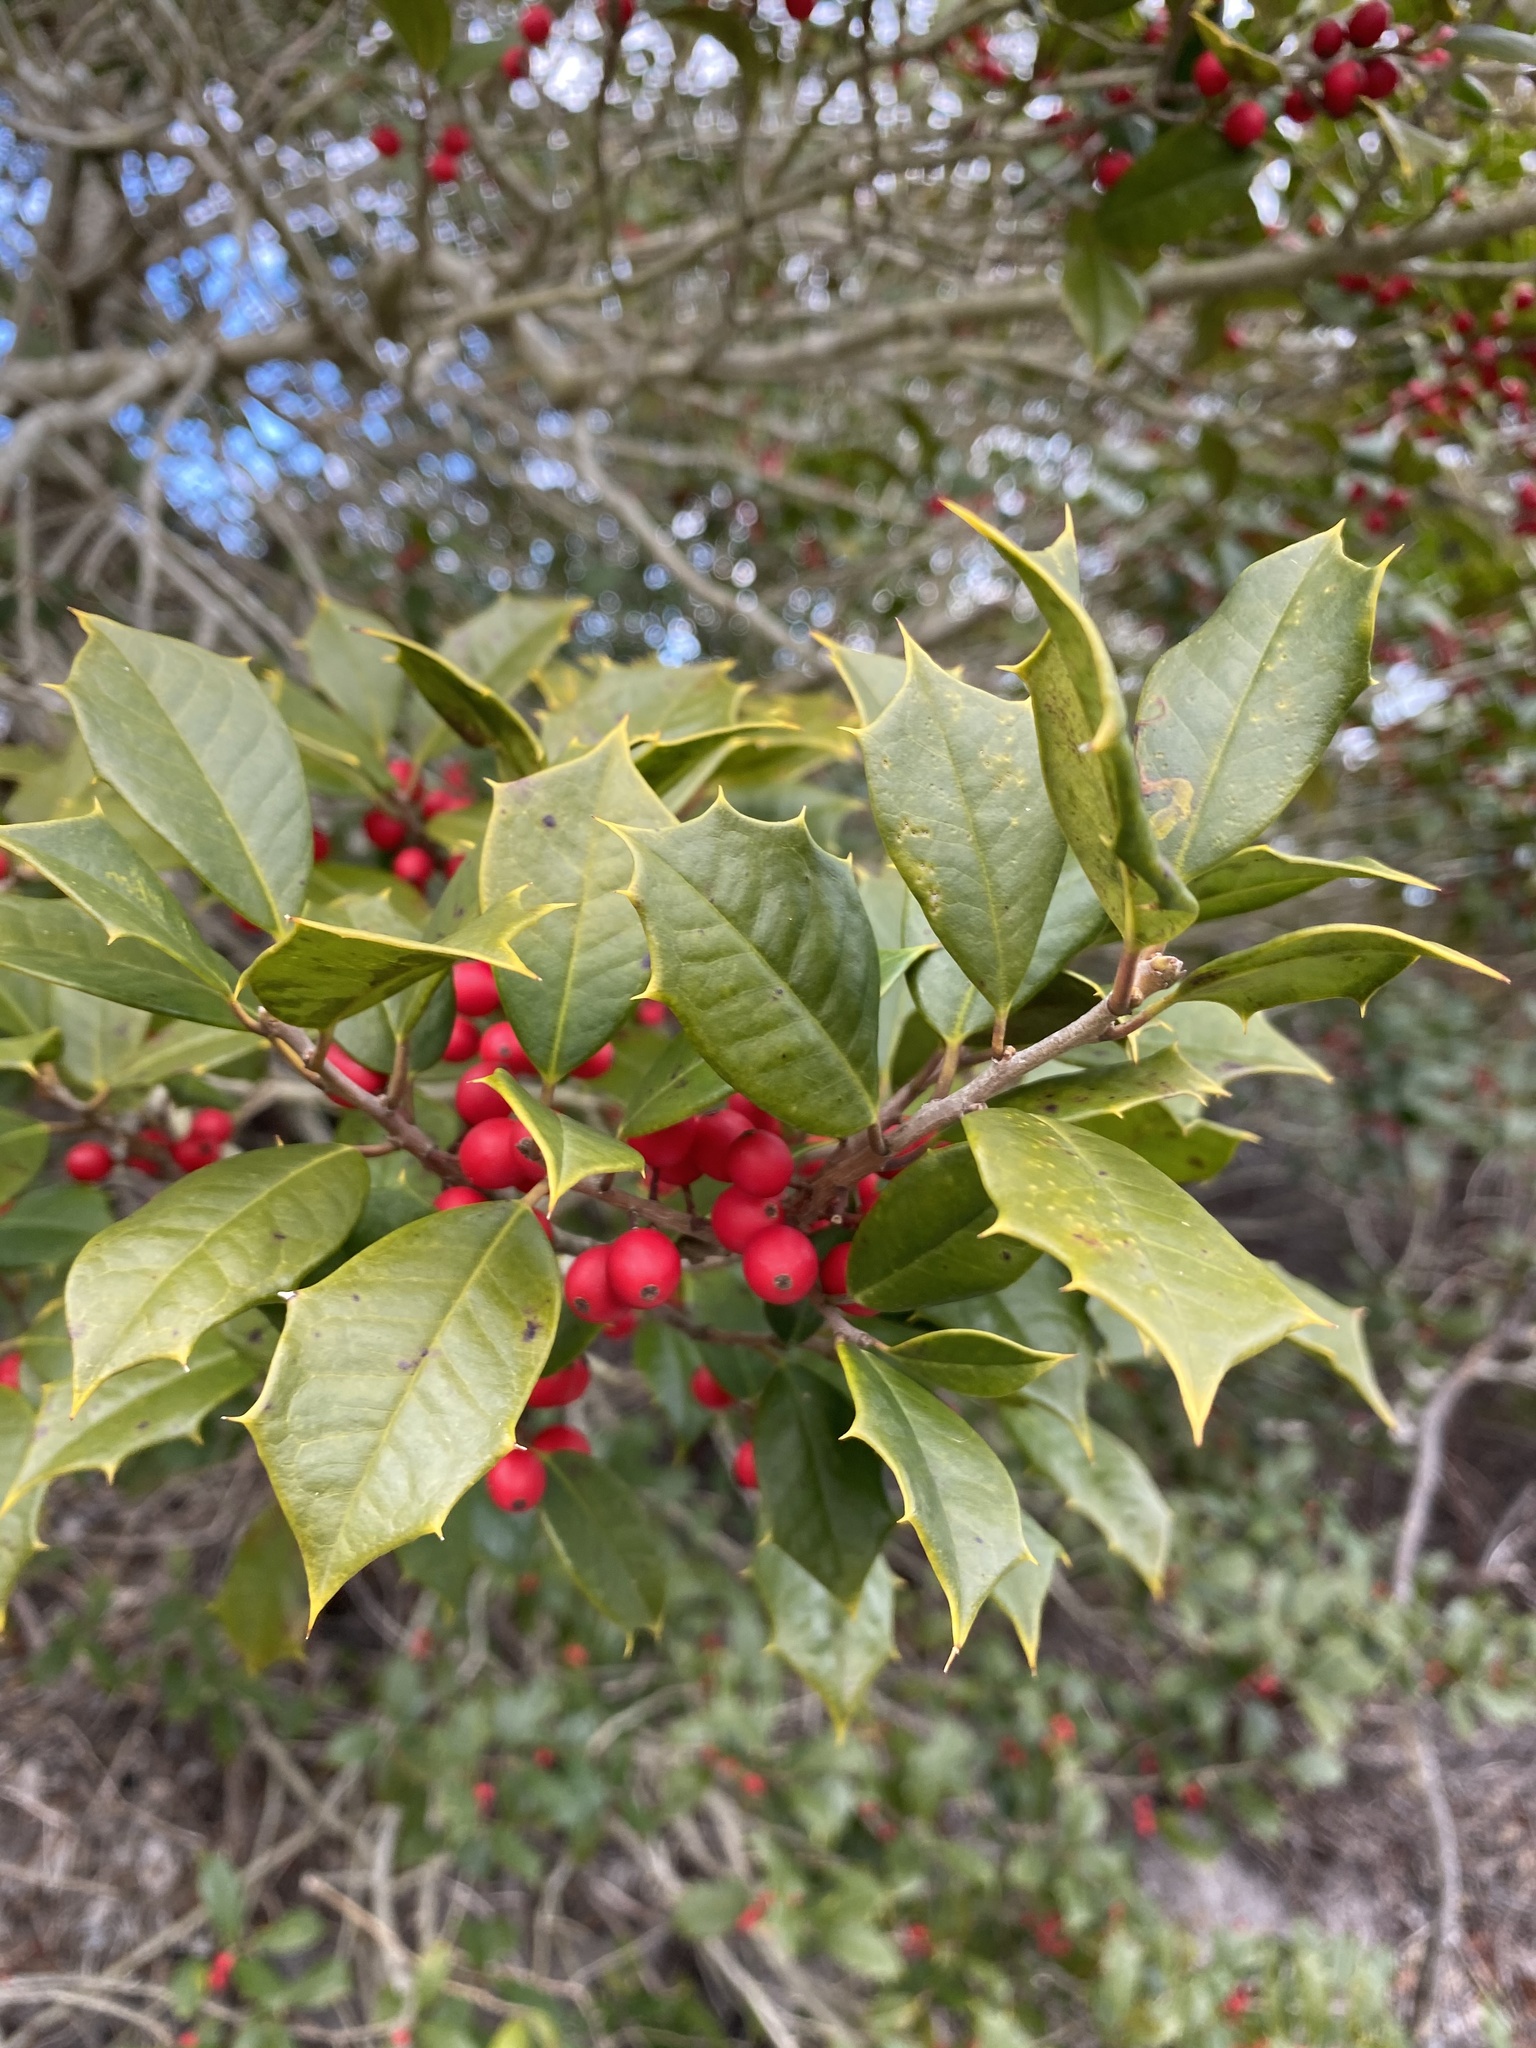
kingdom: Plantae
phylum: Tracheophyta
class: Magnoliopsida
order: Aquifoliales
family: Aquifoliaceae
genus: Ilex
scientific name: Ilex opaca
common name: American holly
